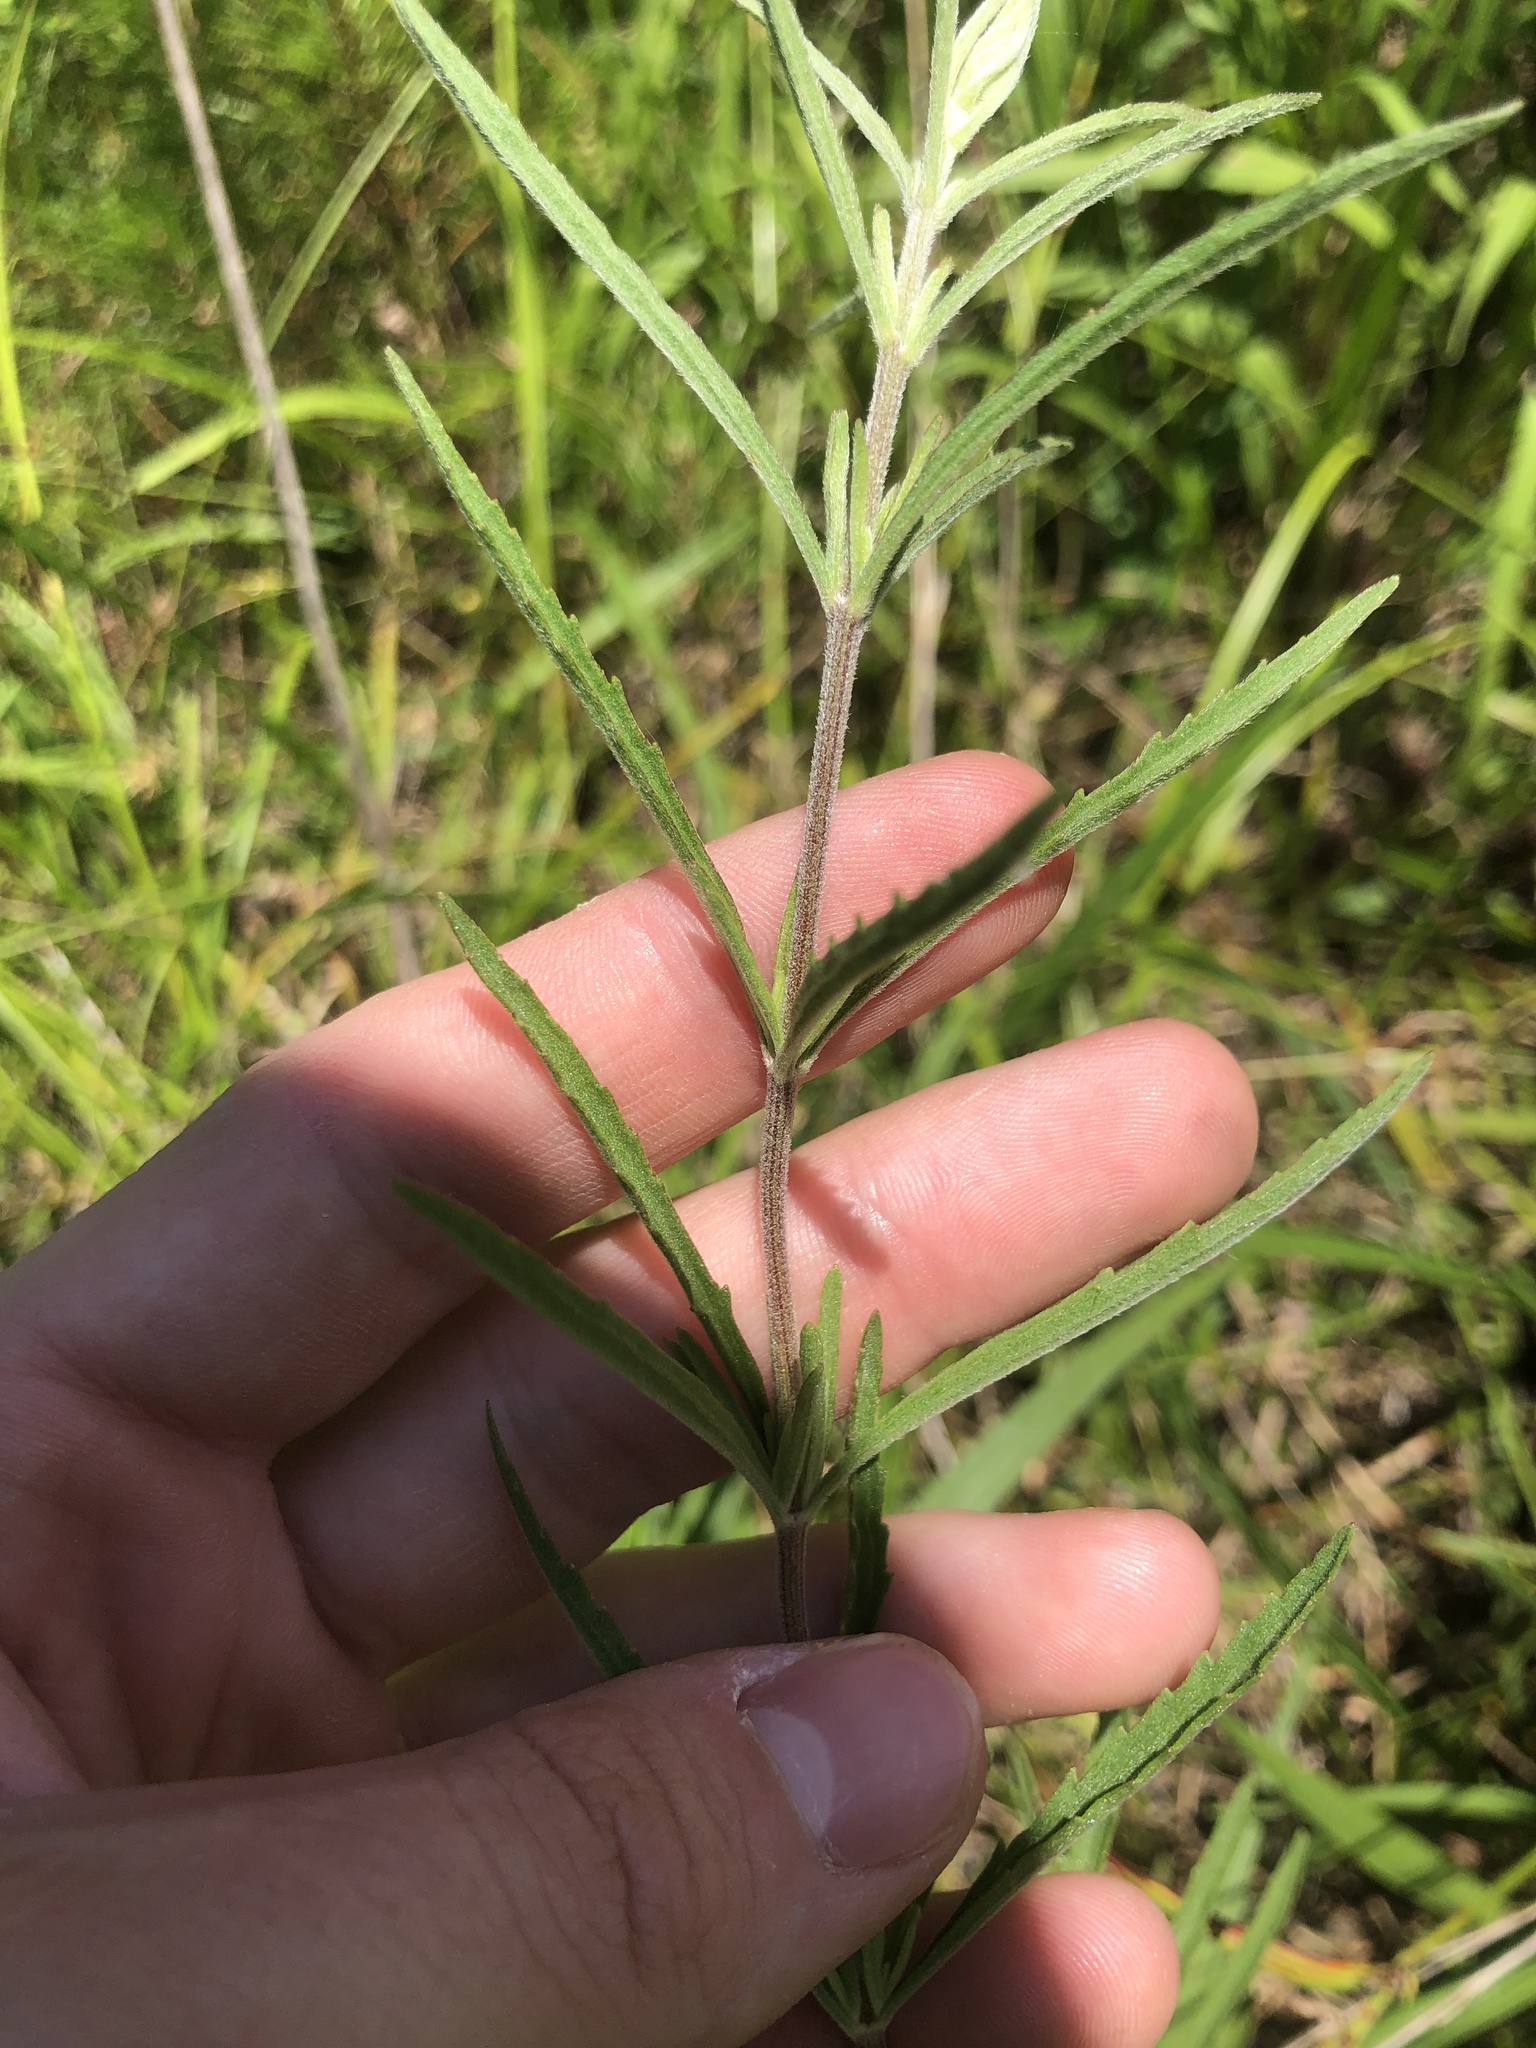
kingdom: Plantae
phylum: Tracheophyta
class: Magnoliopsida
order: Asterales
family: Asteraceae
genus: Eupatorium
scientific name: Eupatorium hyssopifolium
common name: Hyssop-leaf thoroughwort
